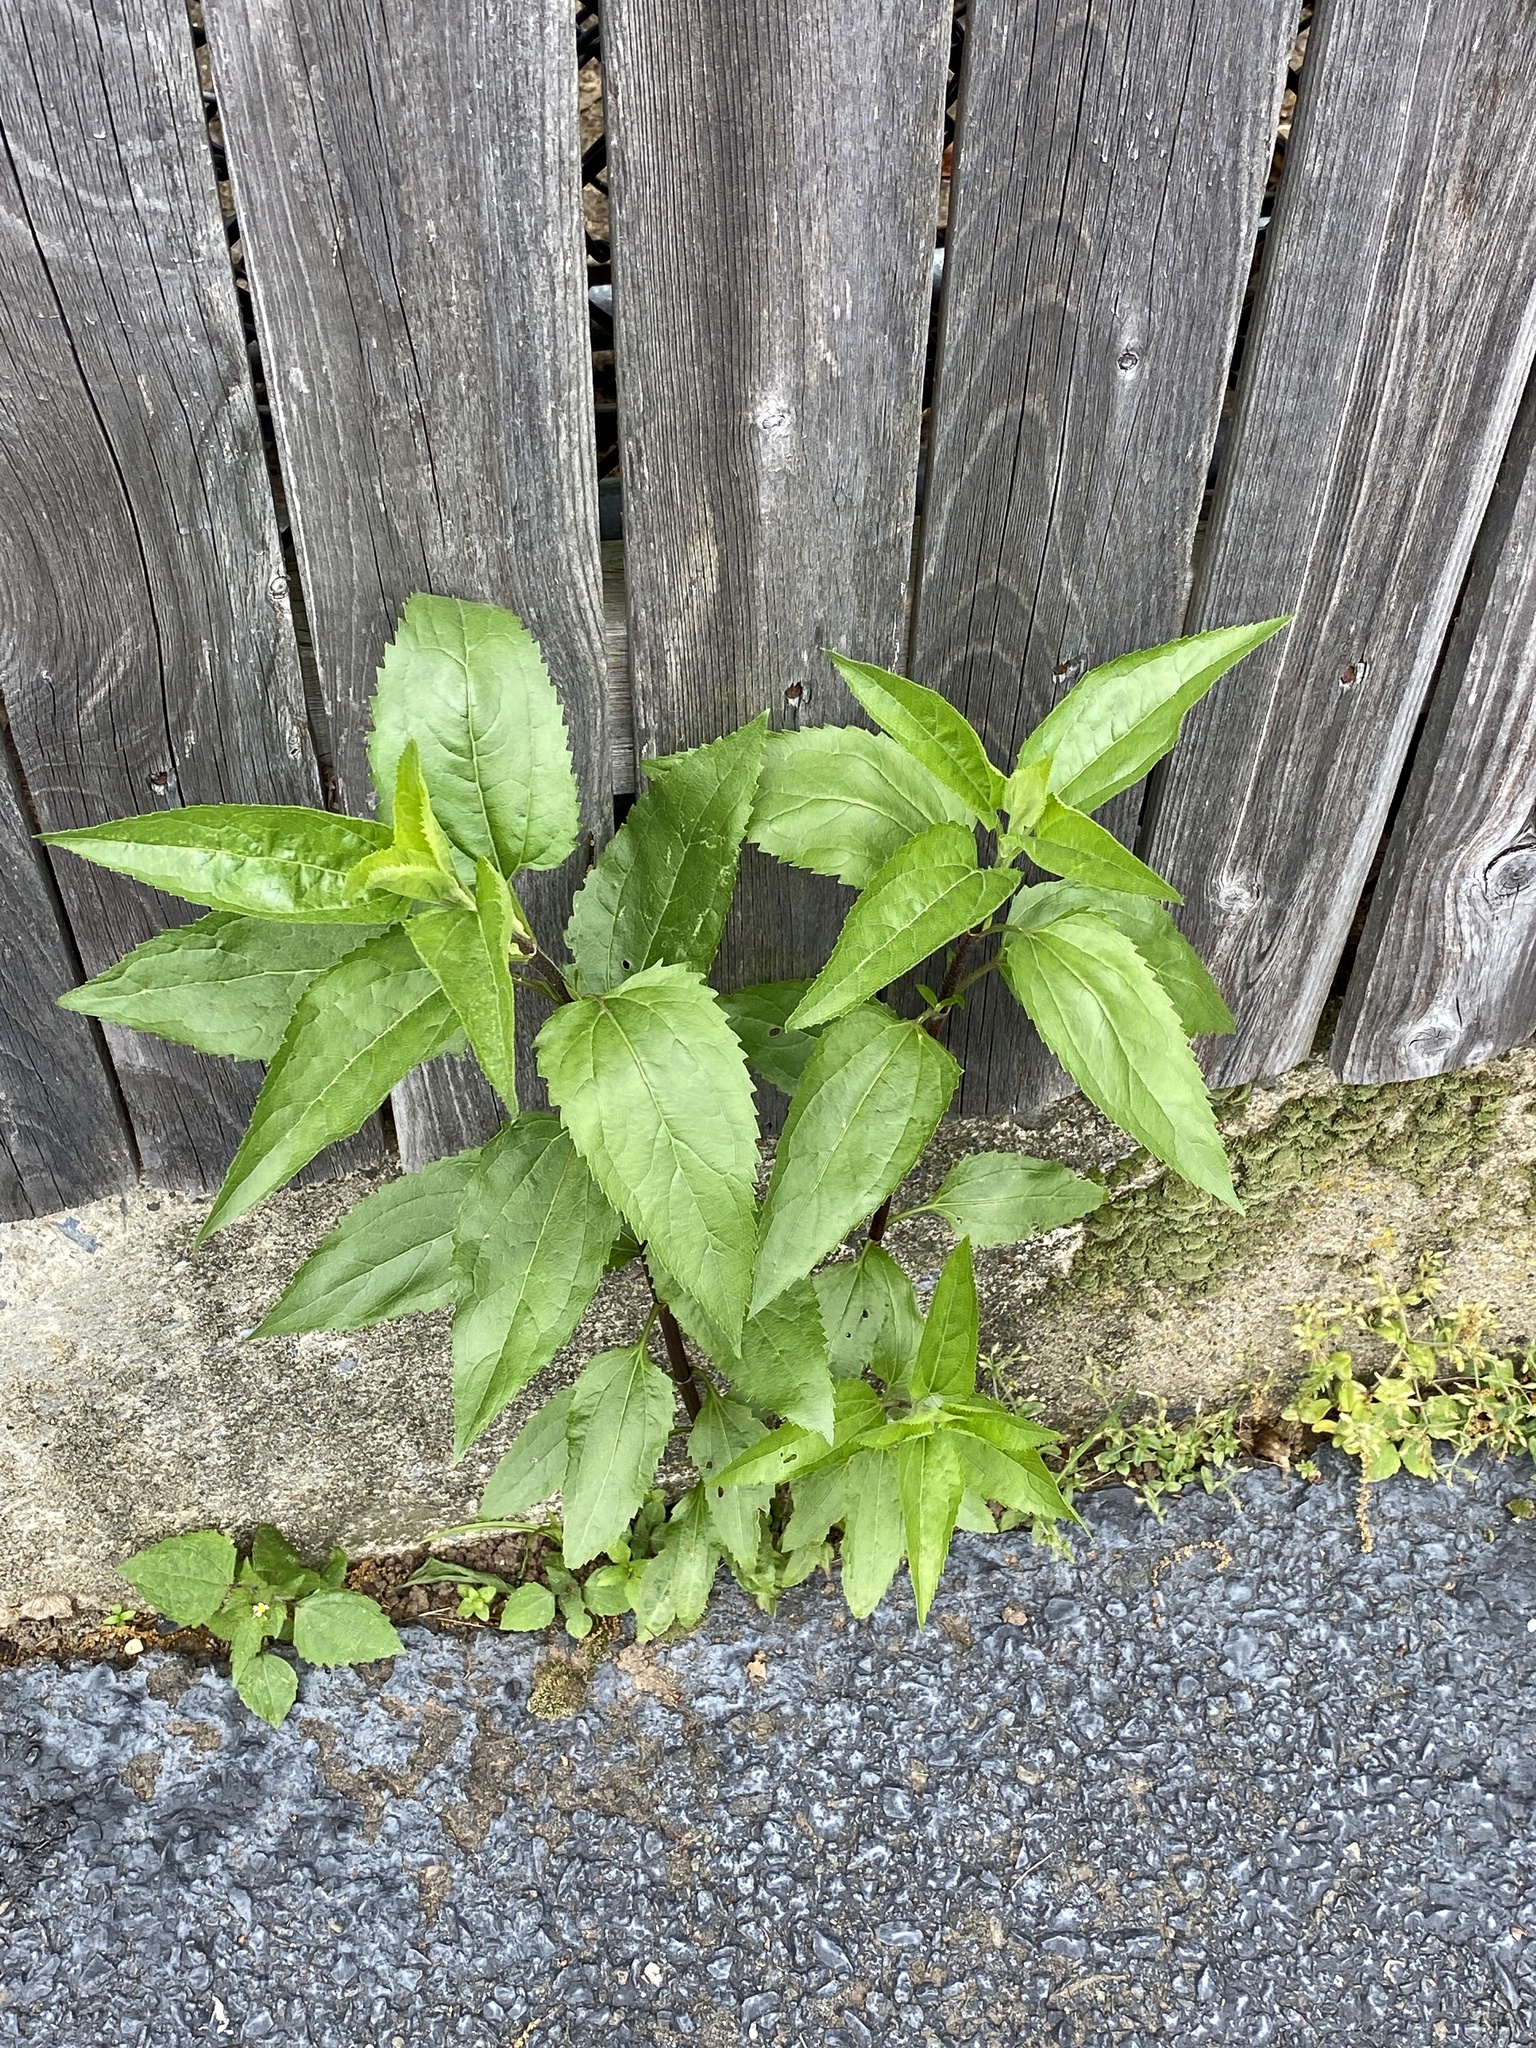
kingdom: Plantae
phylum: Tracheophyta
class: Magnoliopsida
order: Asterales
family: Asteraceae
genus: Eupatorium
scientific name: Eupatorium serotinum
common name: Late boneset
